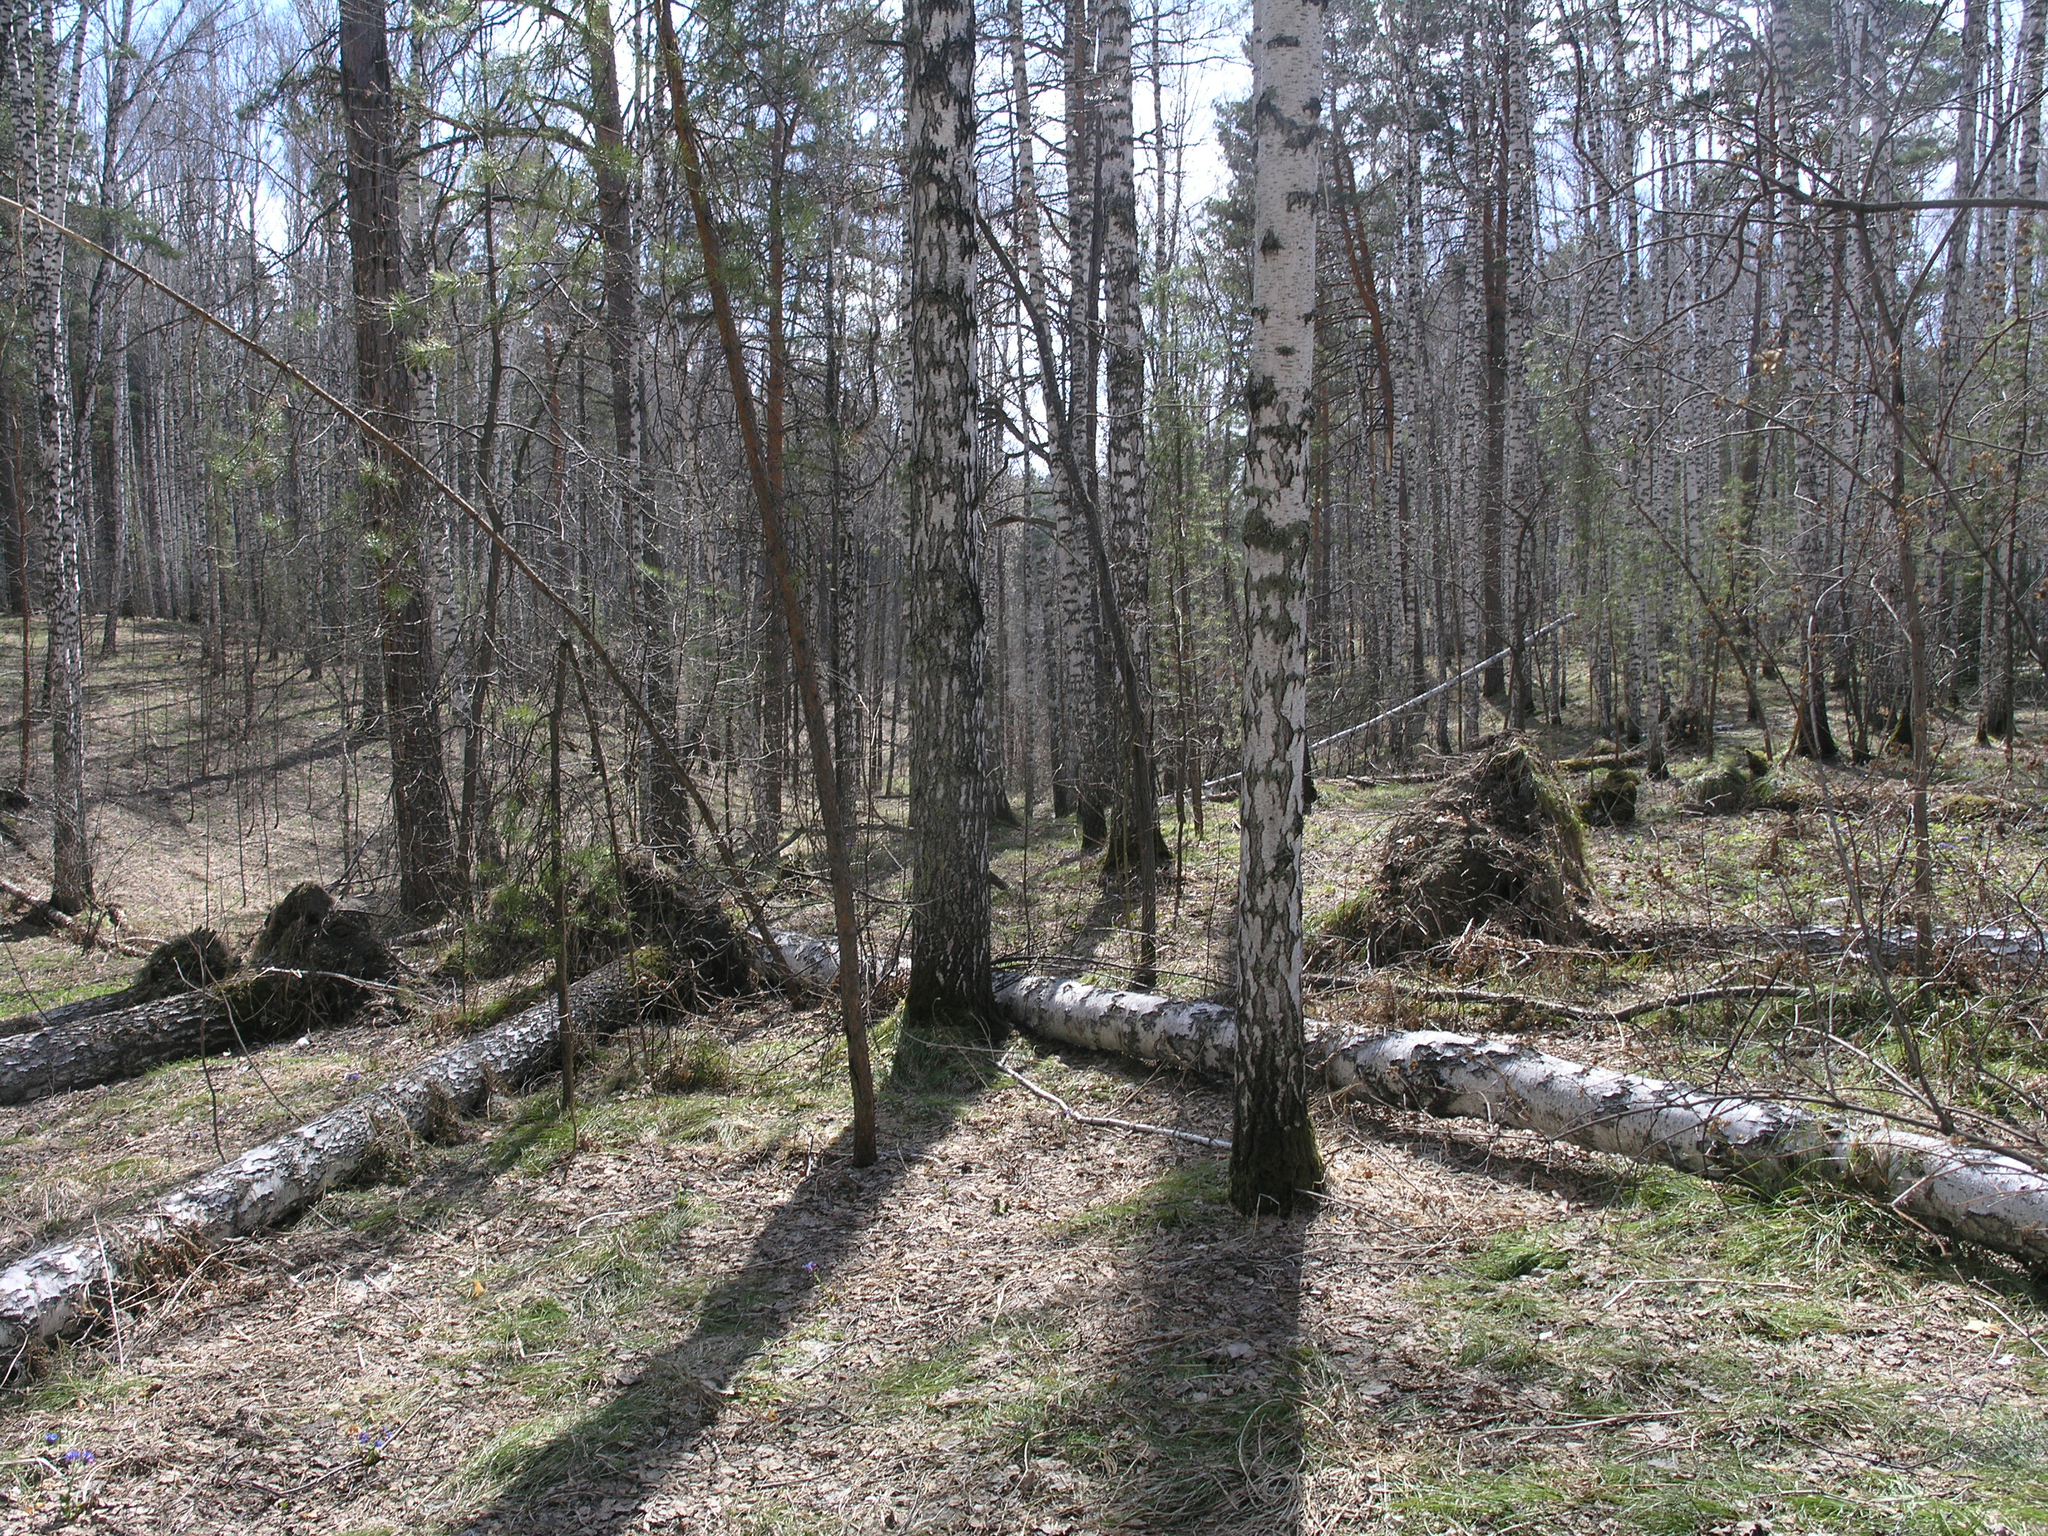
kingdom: Plantae
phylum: Tracheophyta
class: Pinopsida
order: Pinales
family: Pinaceae
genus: Pinus
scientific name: Pinus sylvestris
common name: Scots pine
